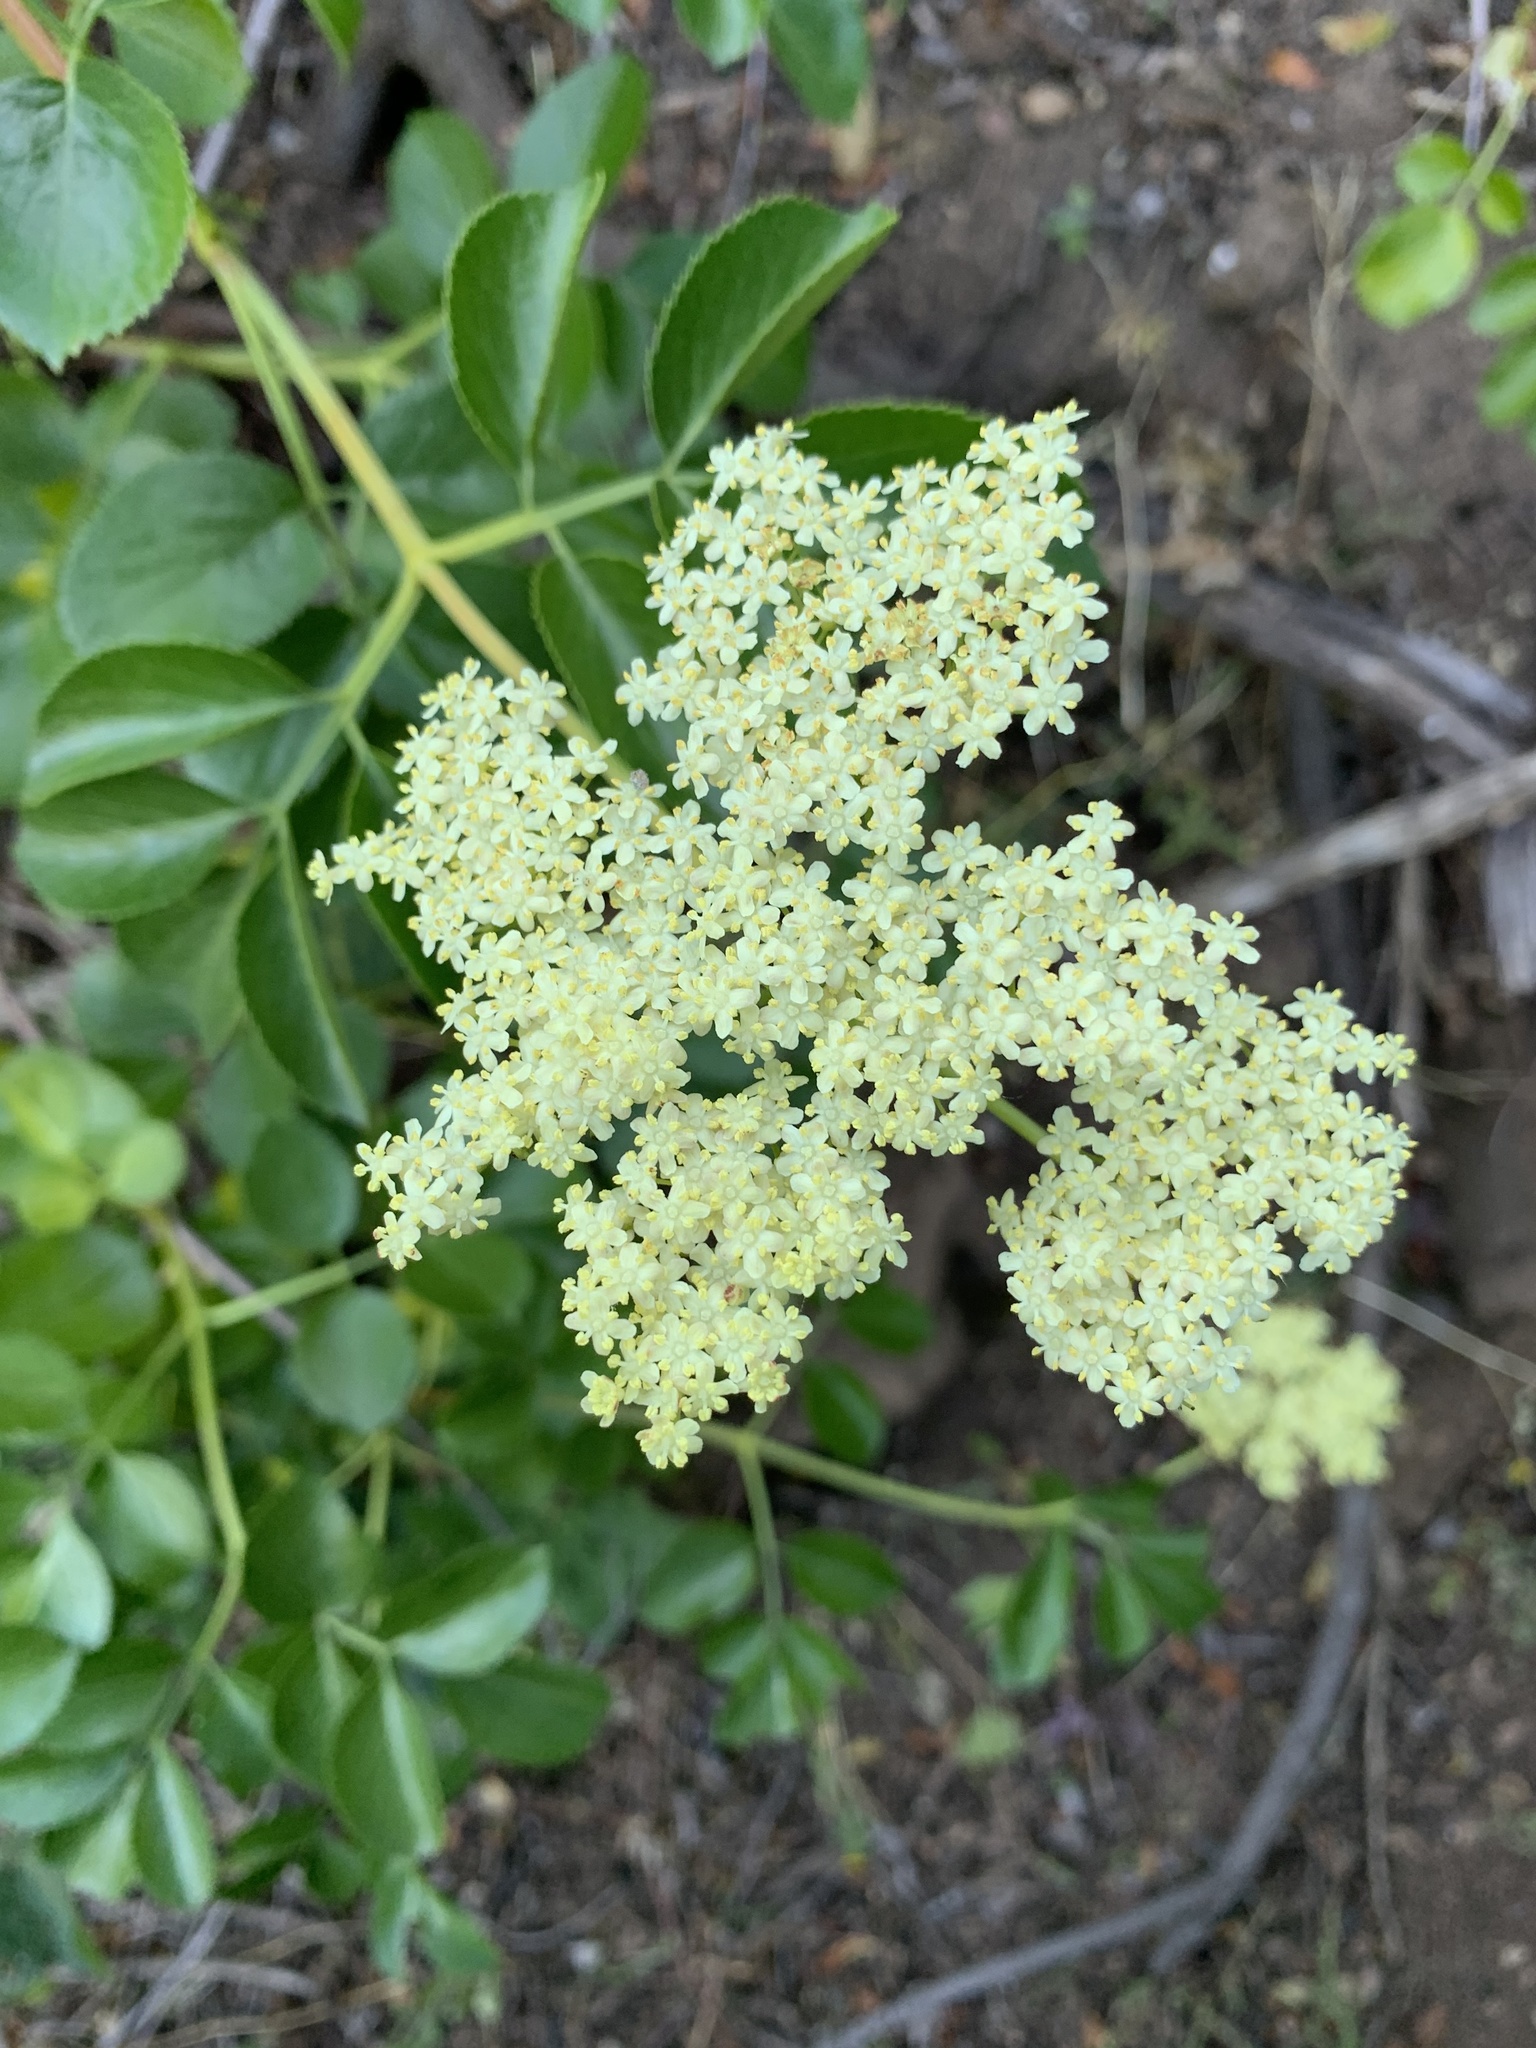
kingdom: Plantae
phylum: Tracheophyta
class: Magnoliopsida
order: Dipsacales
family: Viburnaceae
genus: Sambucus
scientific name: Sambucus cerulea
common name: Blue elder
